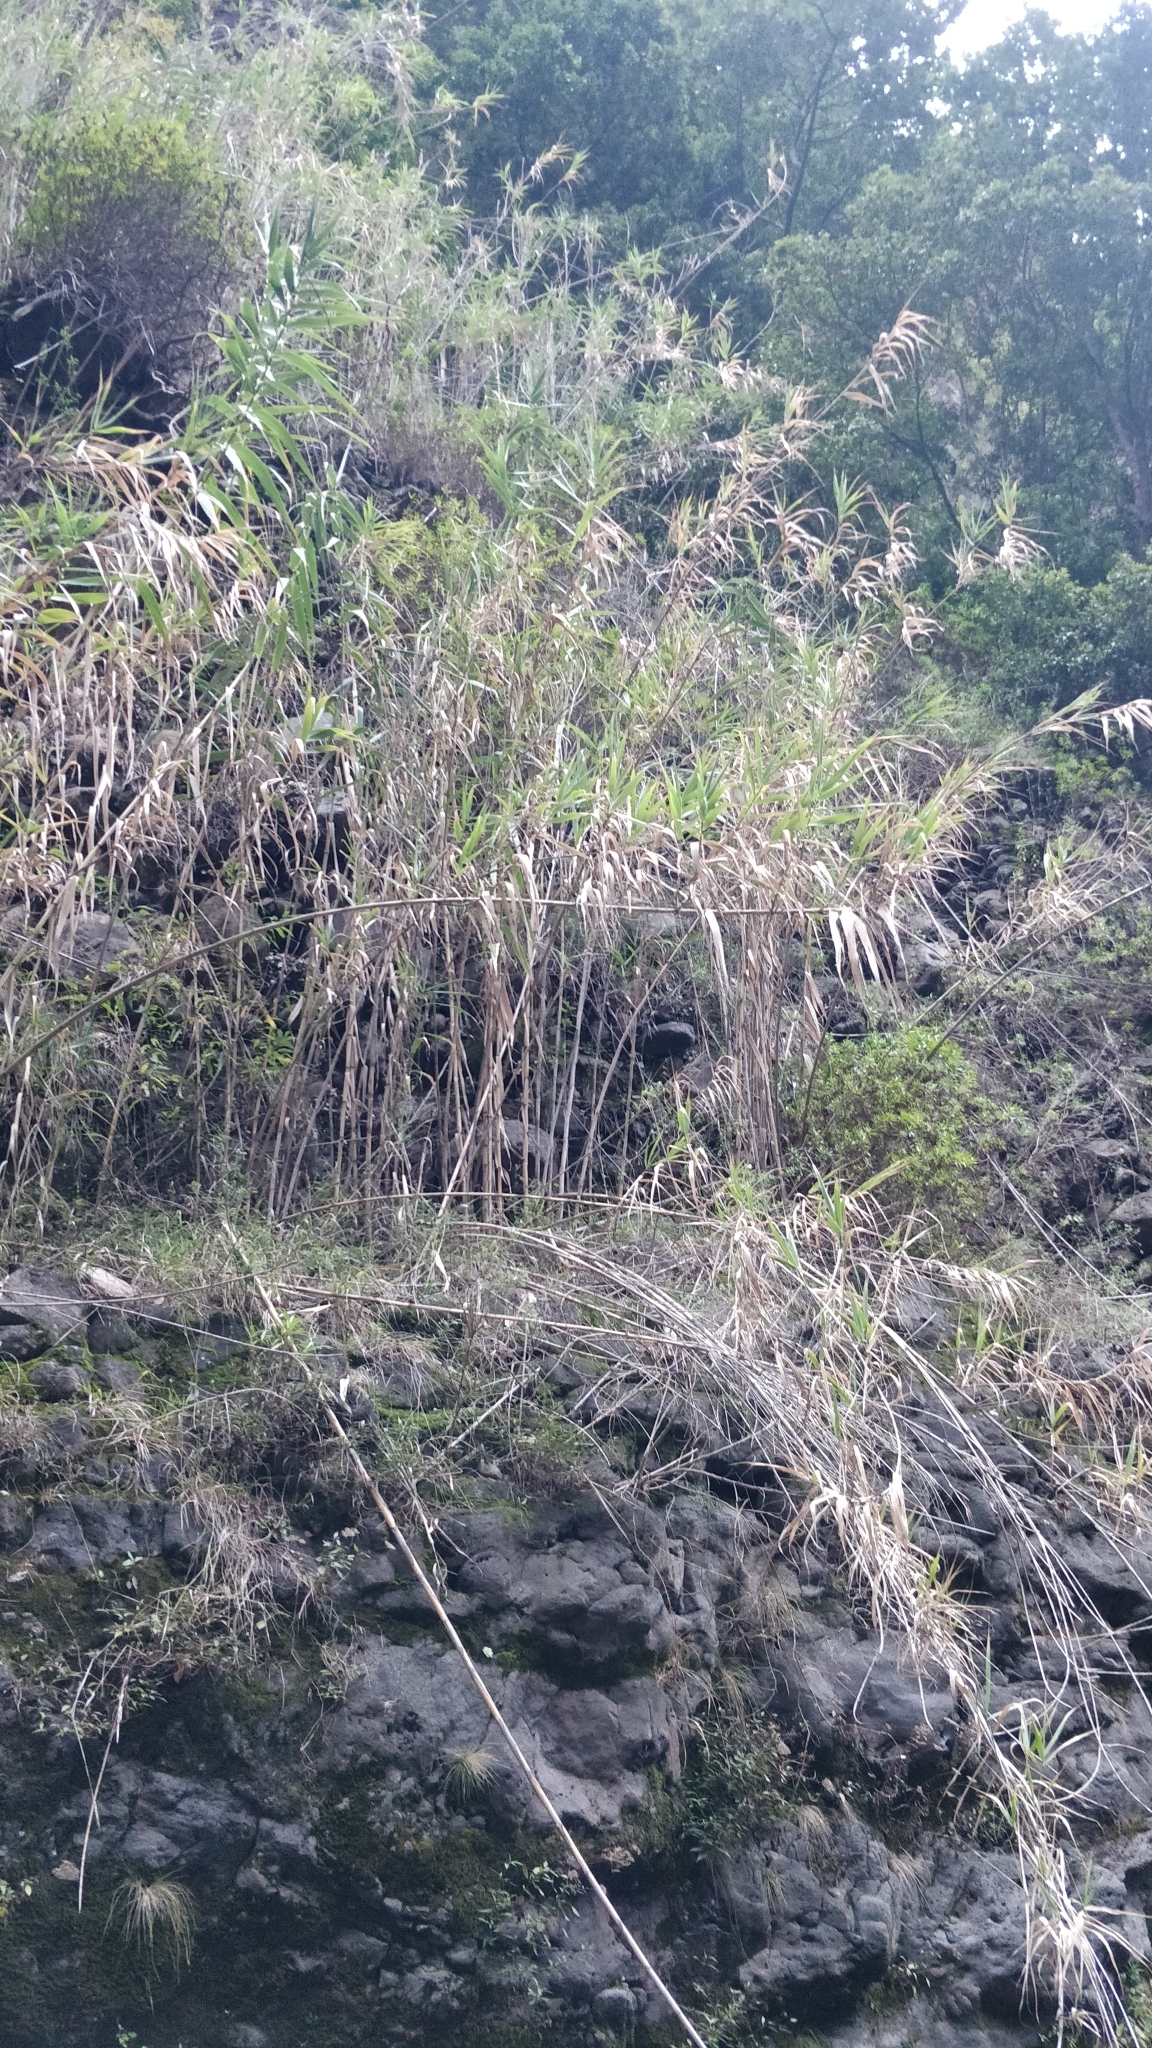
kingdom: Plantae
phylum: Tracheophyta
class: Liliopsida
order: Poales
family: Poaceae
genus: Arundo
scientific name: Arundo donax
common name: Giant reed
